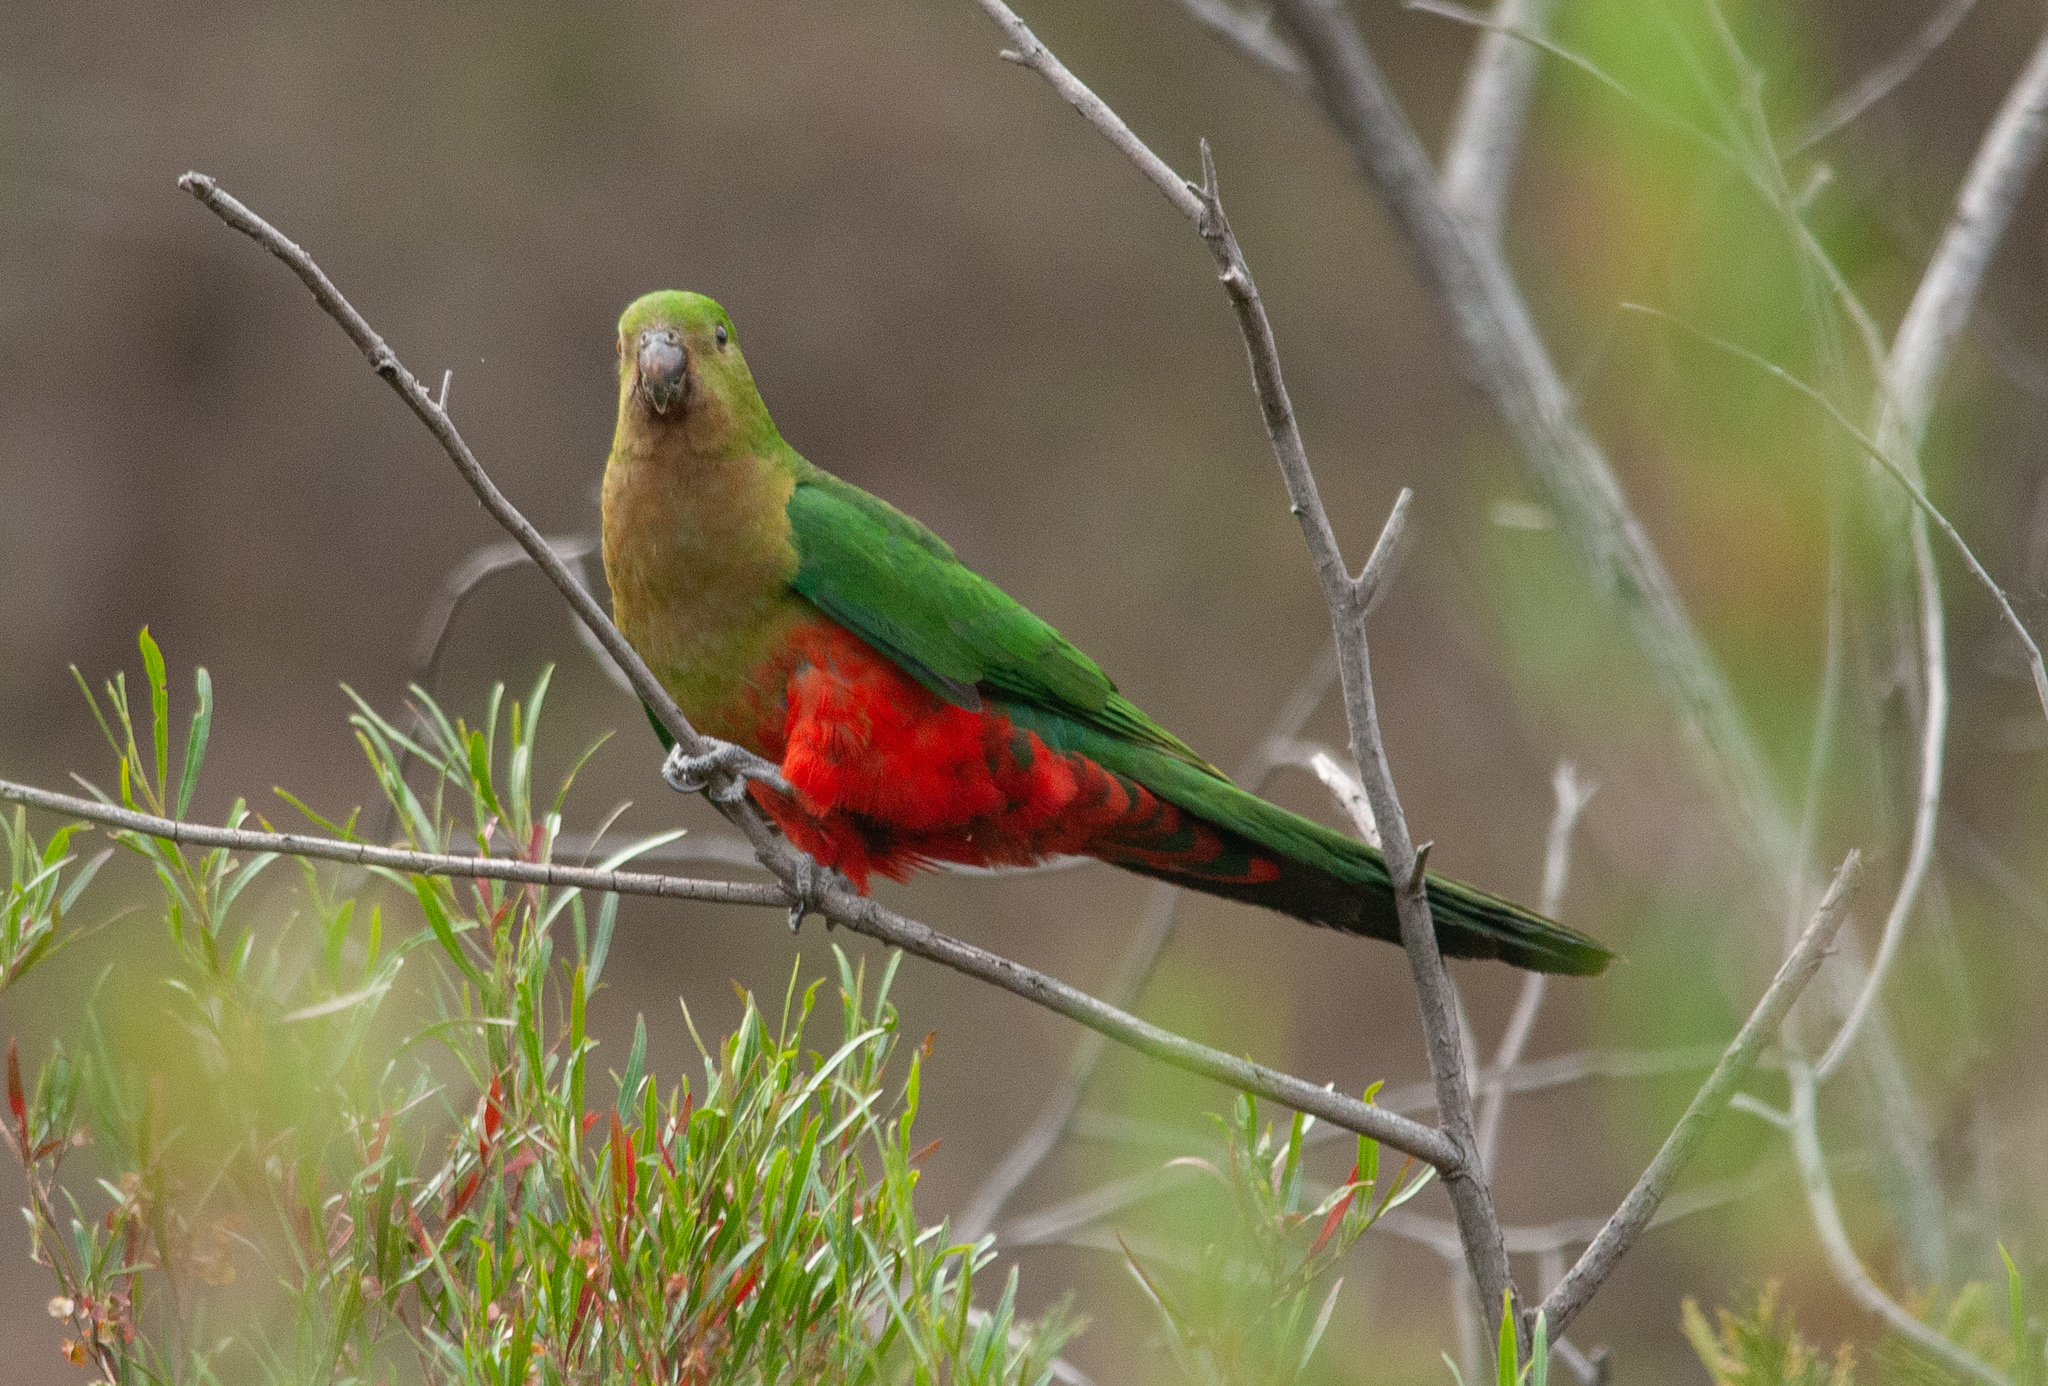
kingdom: Animalia
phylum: Chordata
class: Aves
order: Psittaciformes
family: Psittacidae
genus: Alisterus
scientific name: Alisterus scapularis
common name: Australian king parrot
